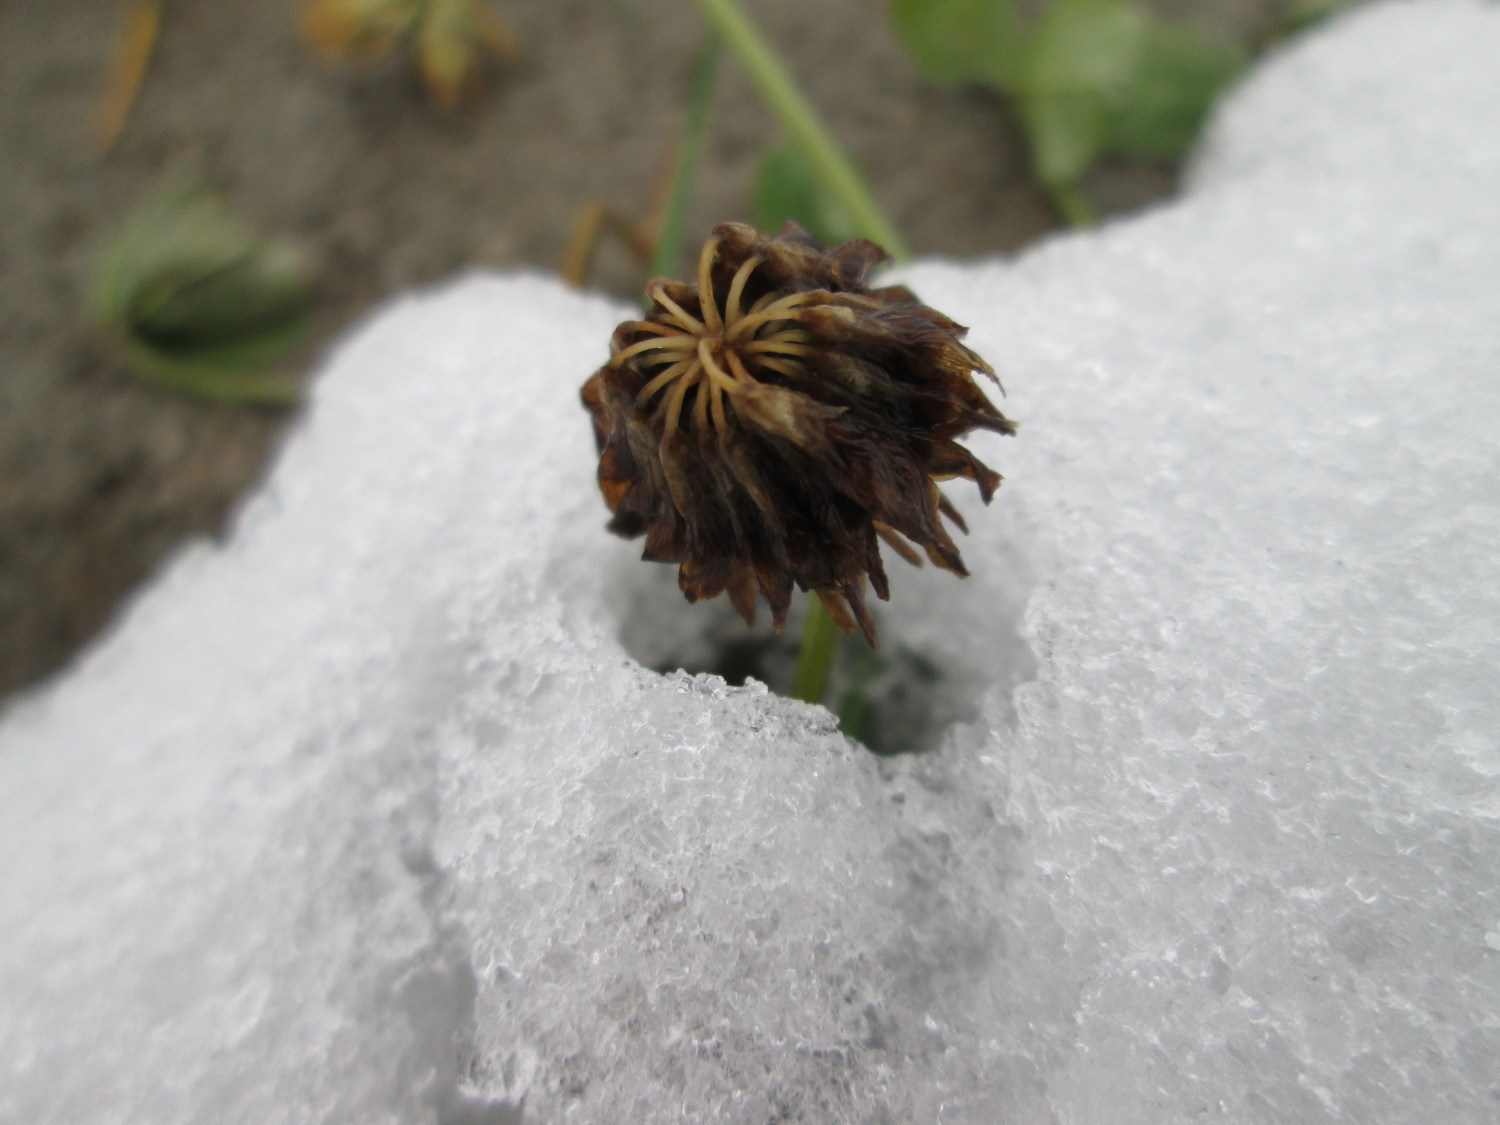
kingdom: Plantae
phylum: Tracheophyta
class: Magnoliopsida
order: Fabales
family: Fabaceae
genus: Trifolium
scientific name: Trifolium repens
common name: White clover
